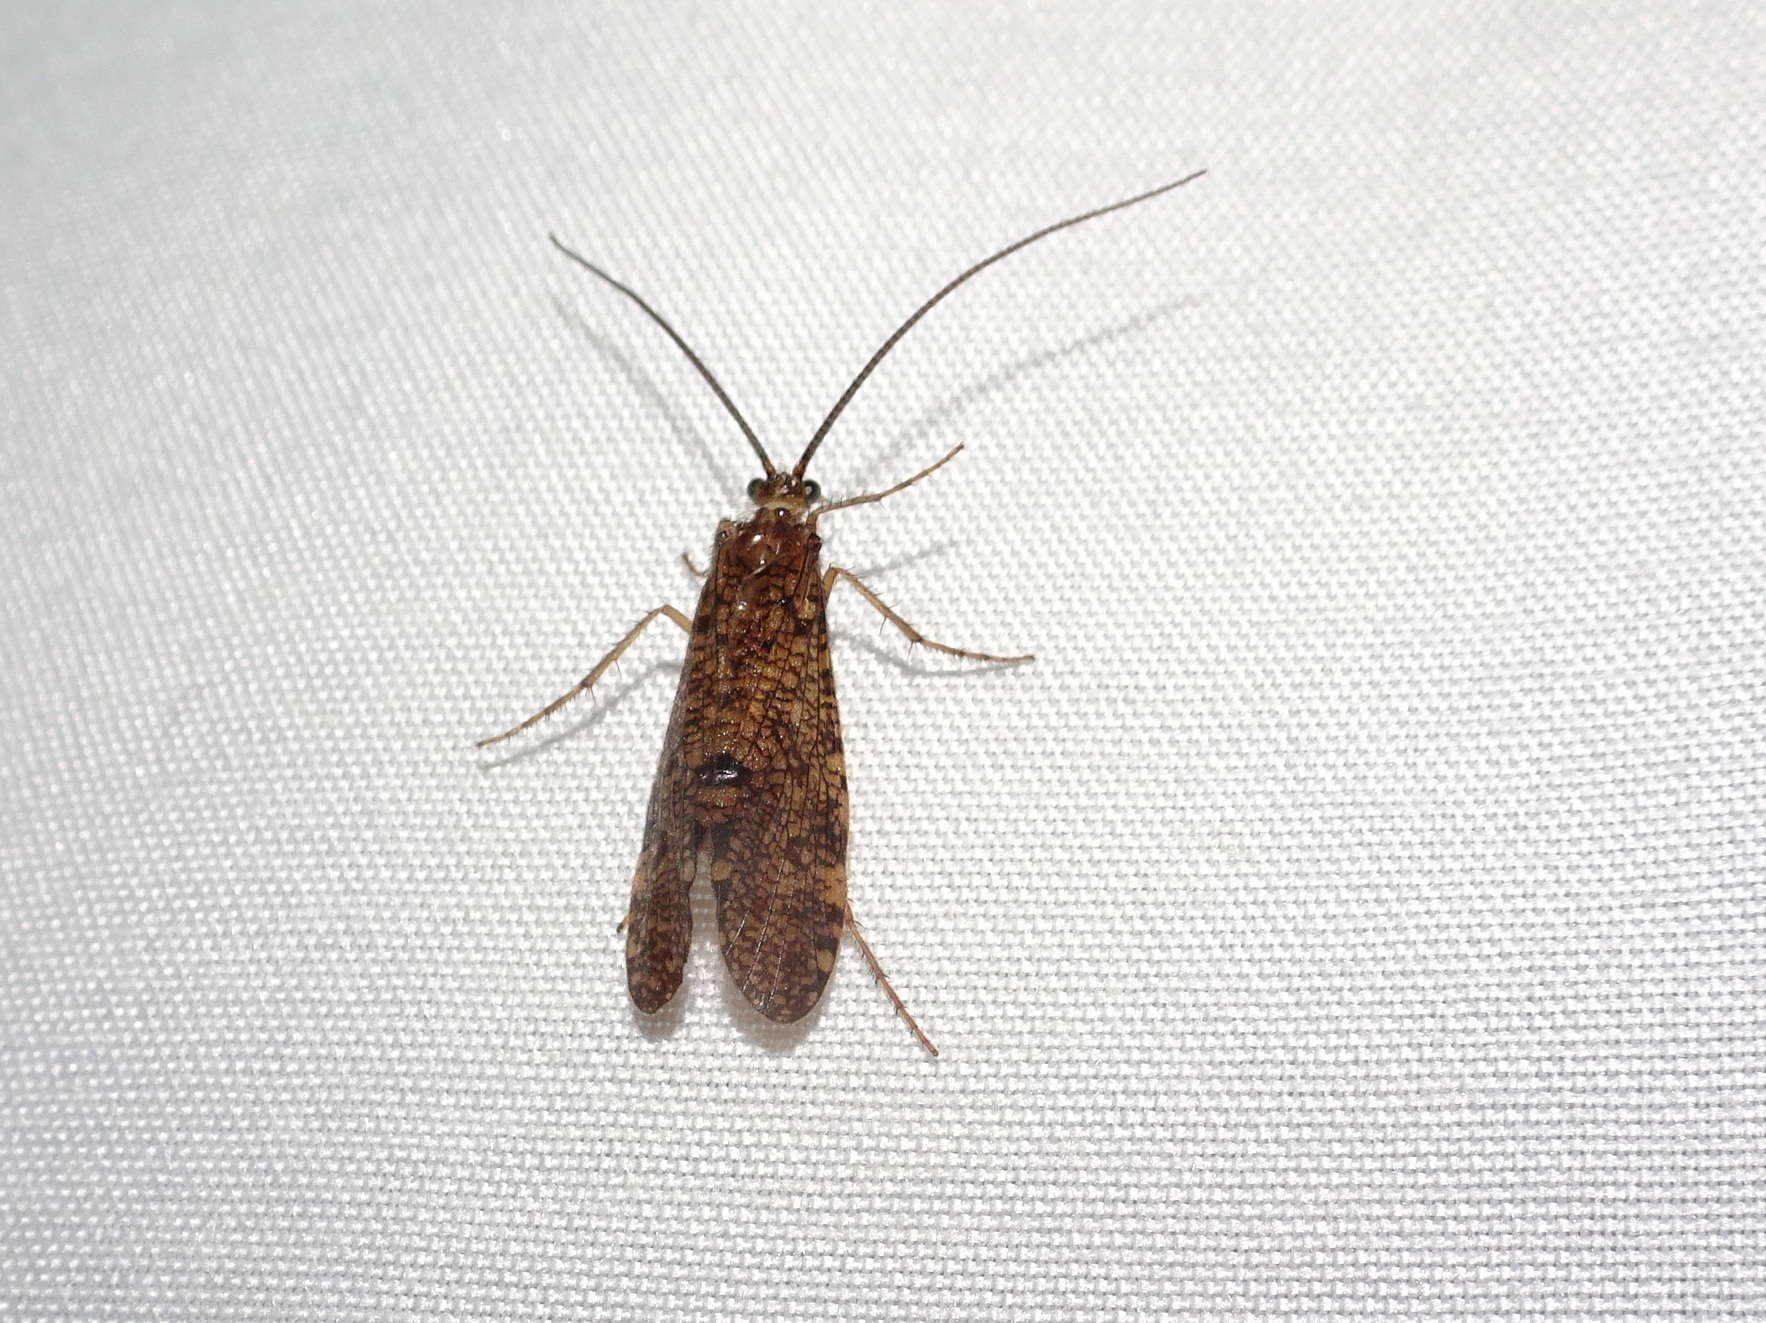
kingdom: Animalia
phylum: Arthropoda
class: Insecta
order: Trichoptera
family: Phryganeidae
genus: Banksiola
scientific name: Banksiola crotchi
